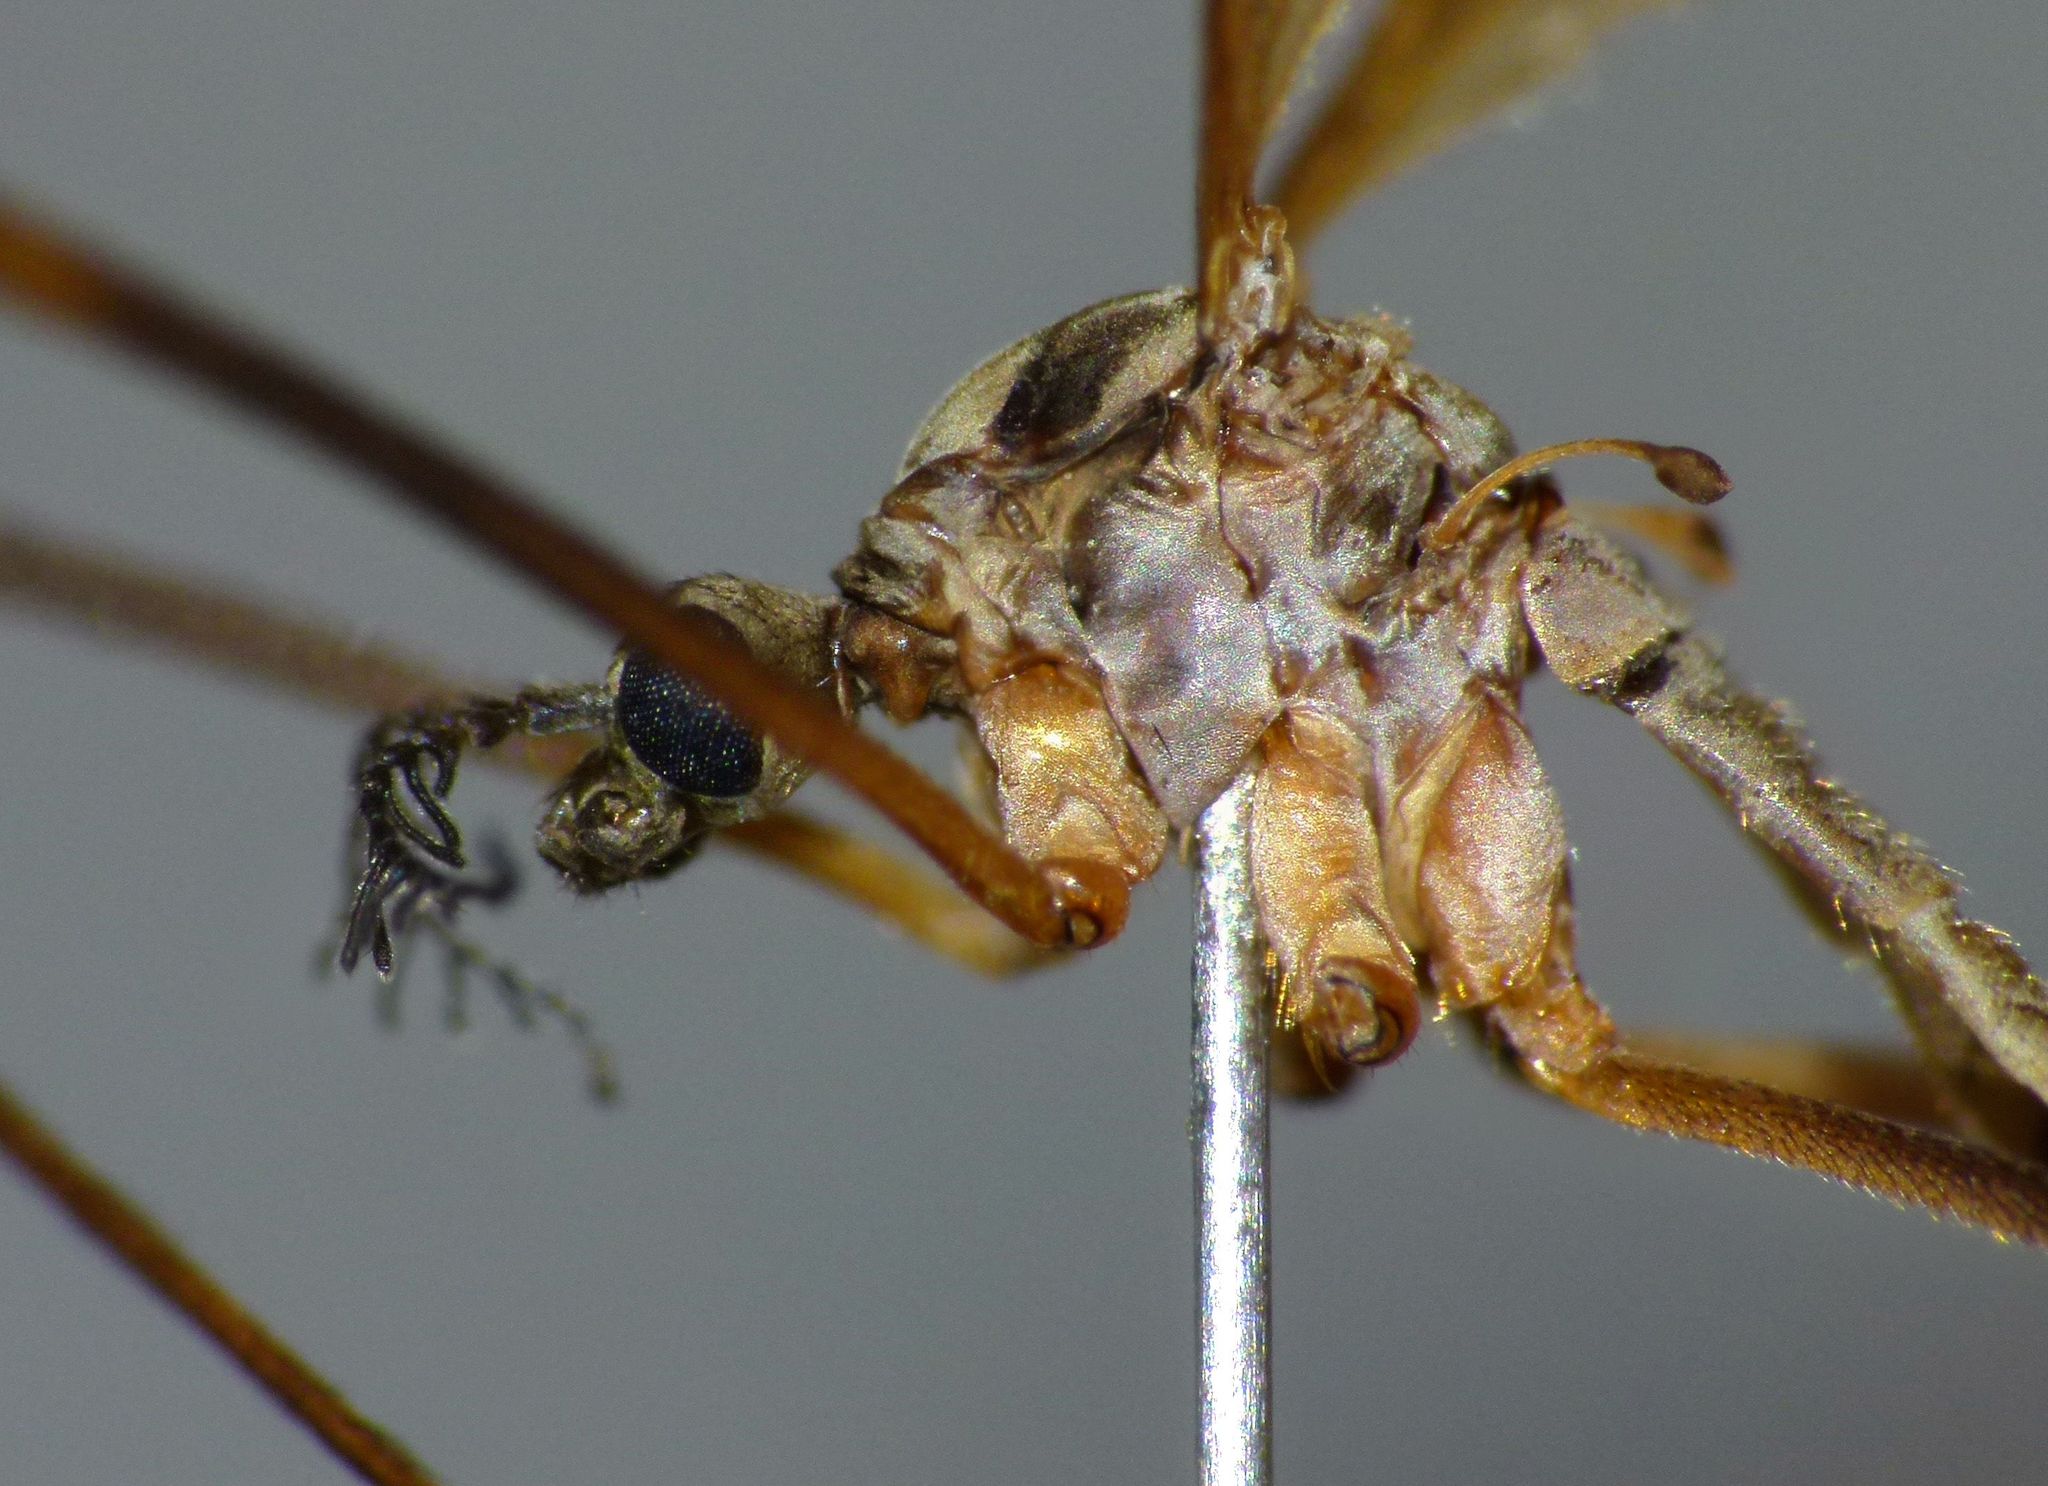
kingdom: Animalia
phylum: Arthropoda
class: Insecta
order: Diptera
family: Limoniidae
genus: Gynoplistia
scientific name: Gynoplistia bituberculata
